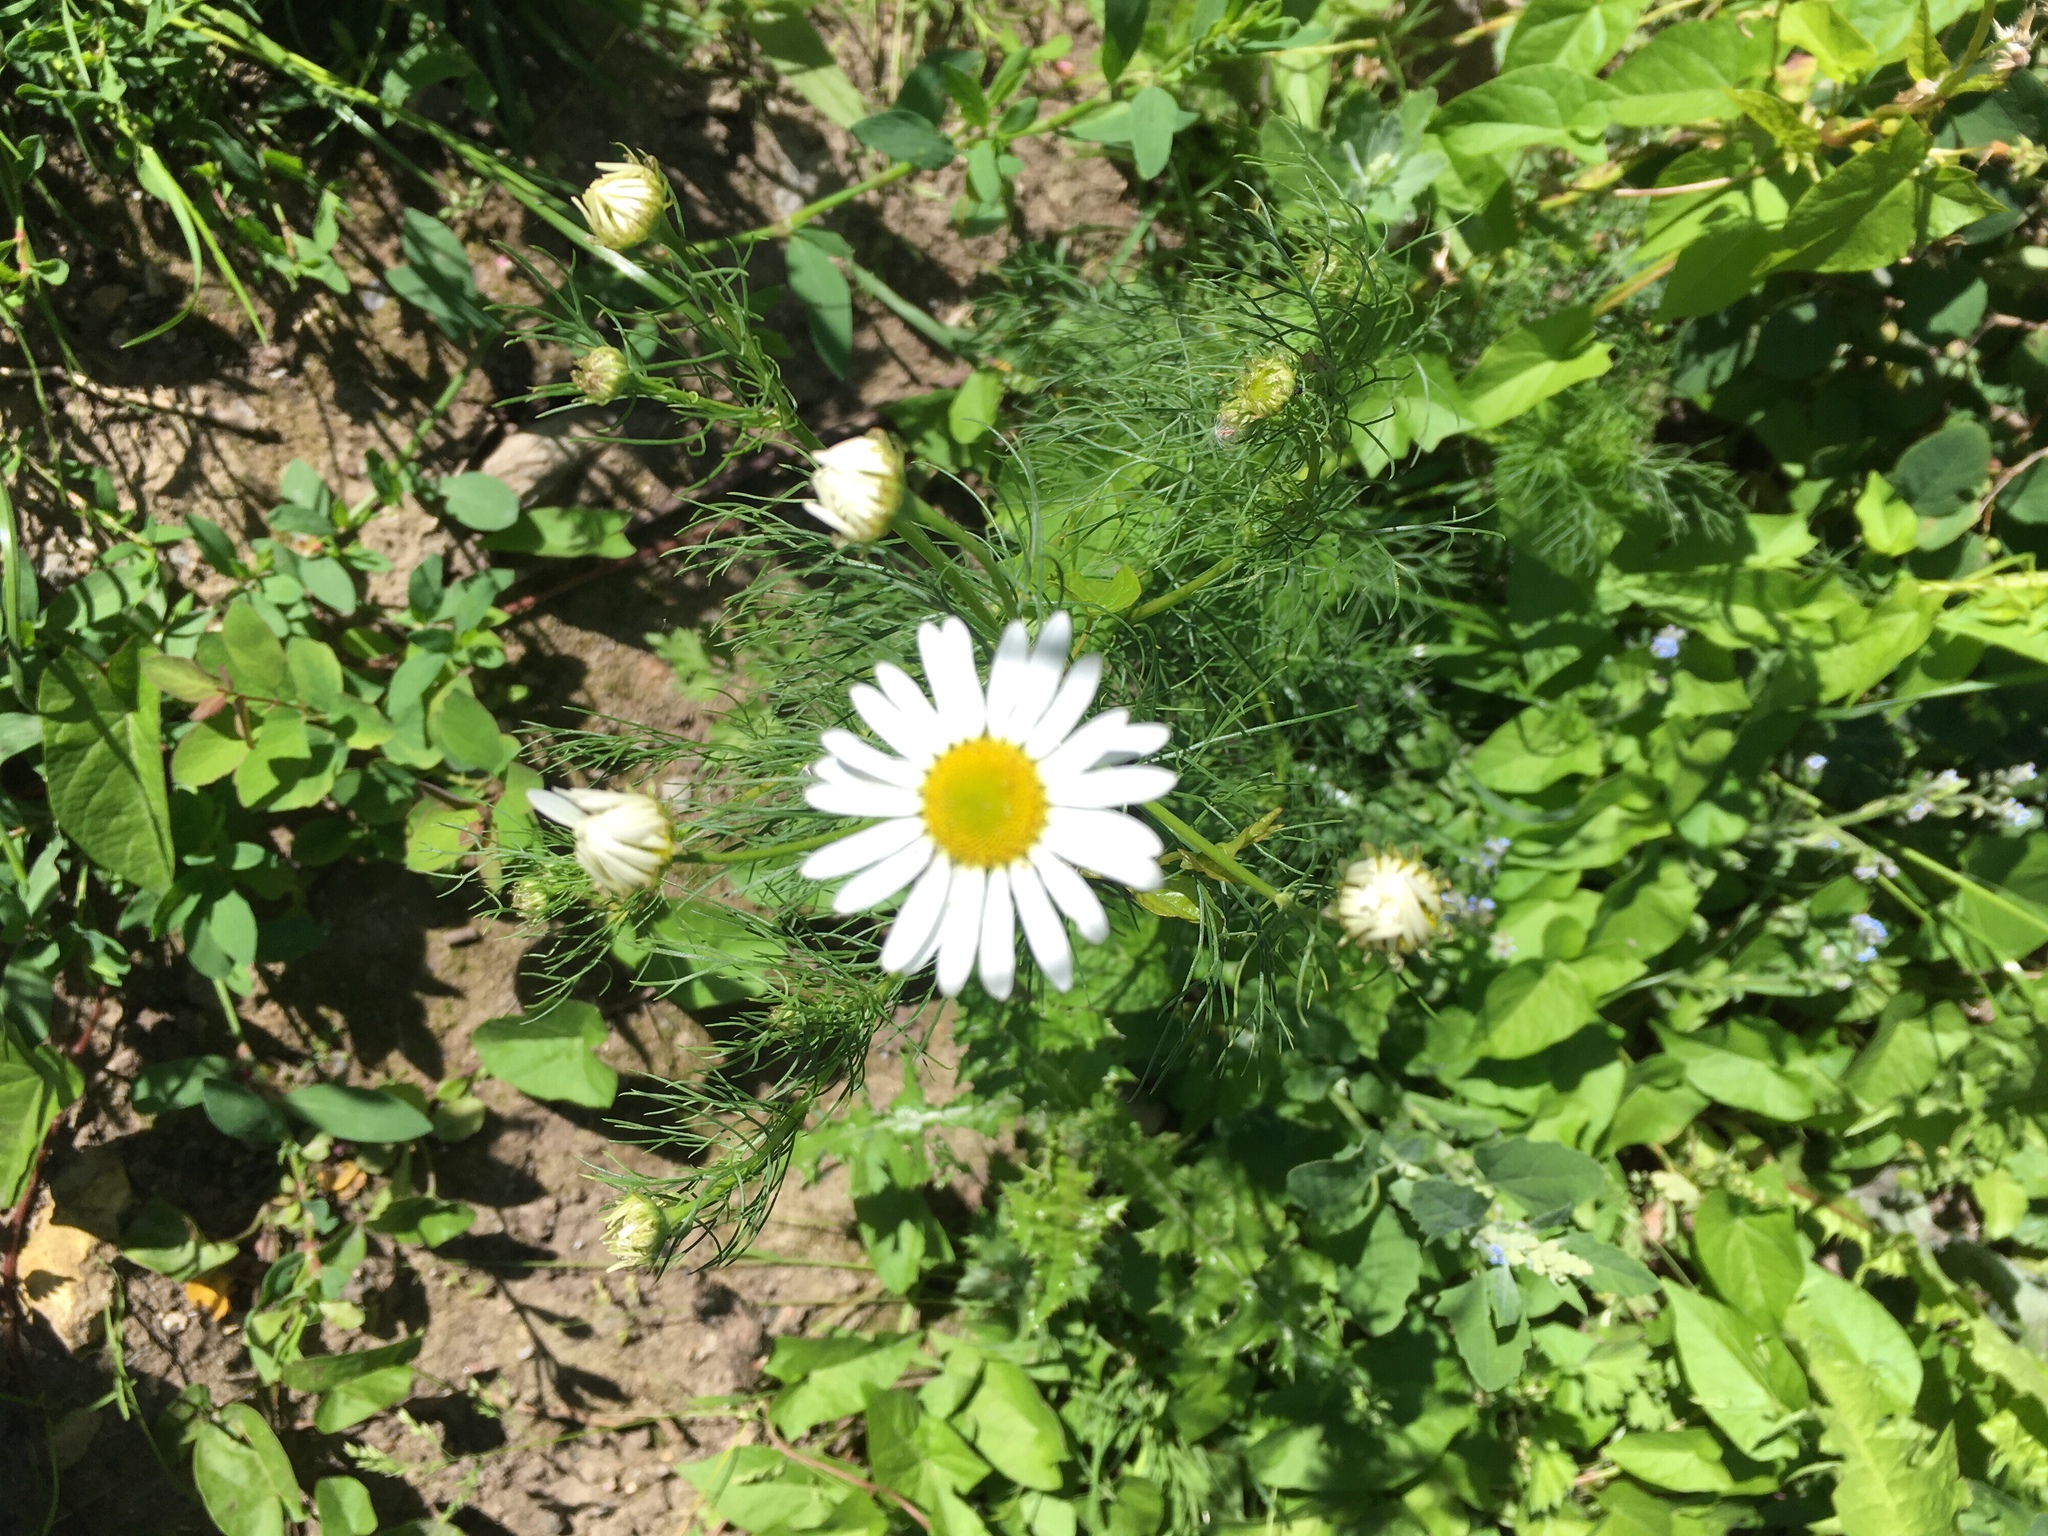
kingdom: Plantae
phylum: Tracheophyta
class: Magnoliopsida
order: Asterales
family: Asteraceae
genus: Tripleurospermum
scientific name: Tripleurospermum inodorum
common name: Scentless mayweed
